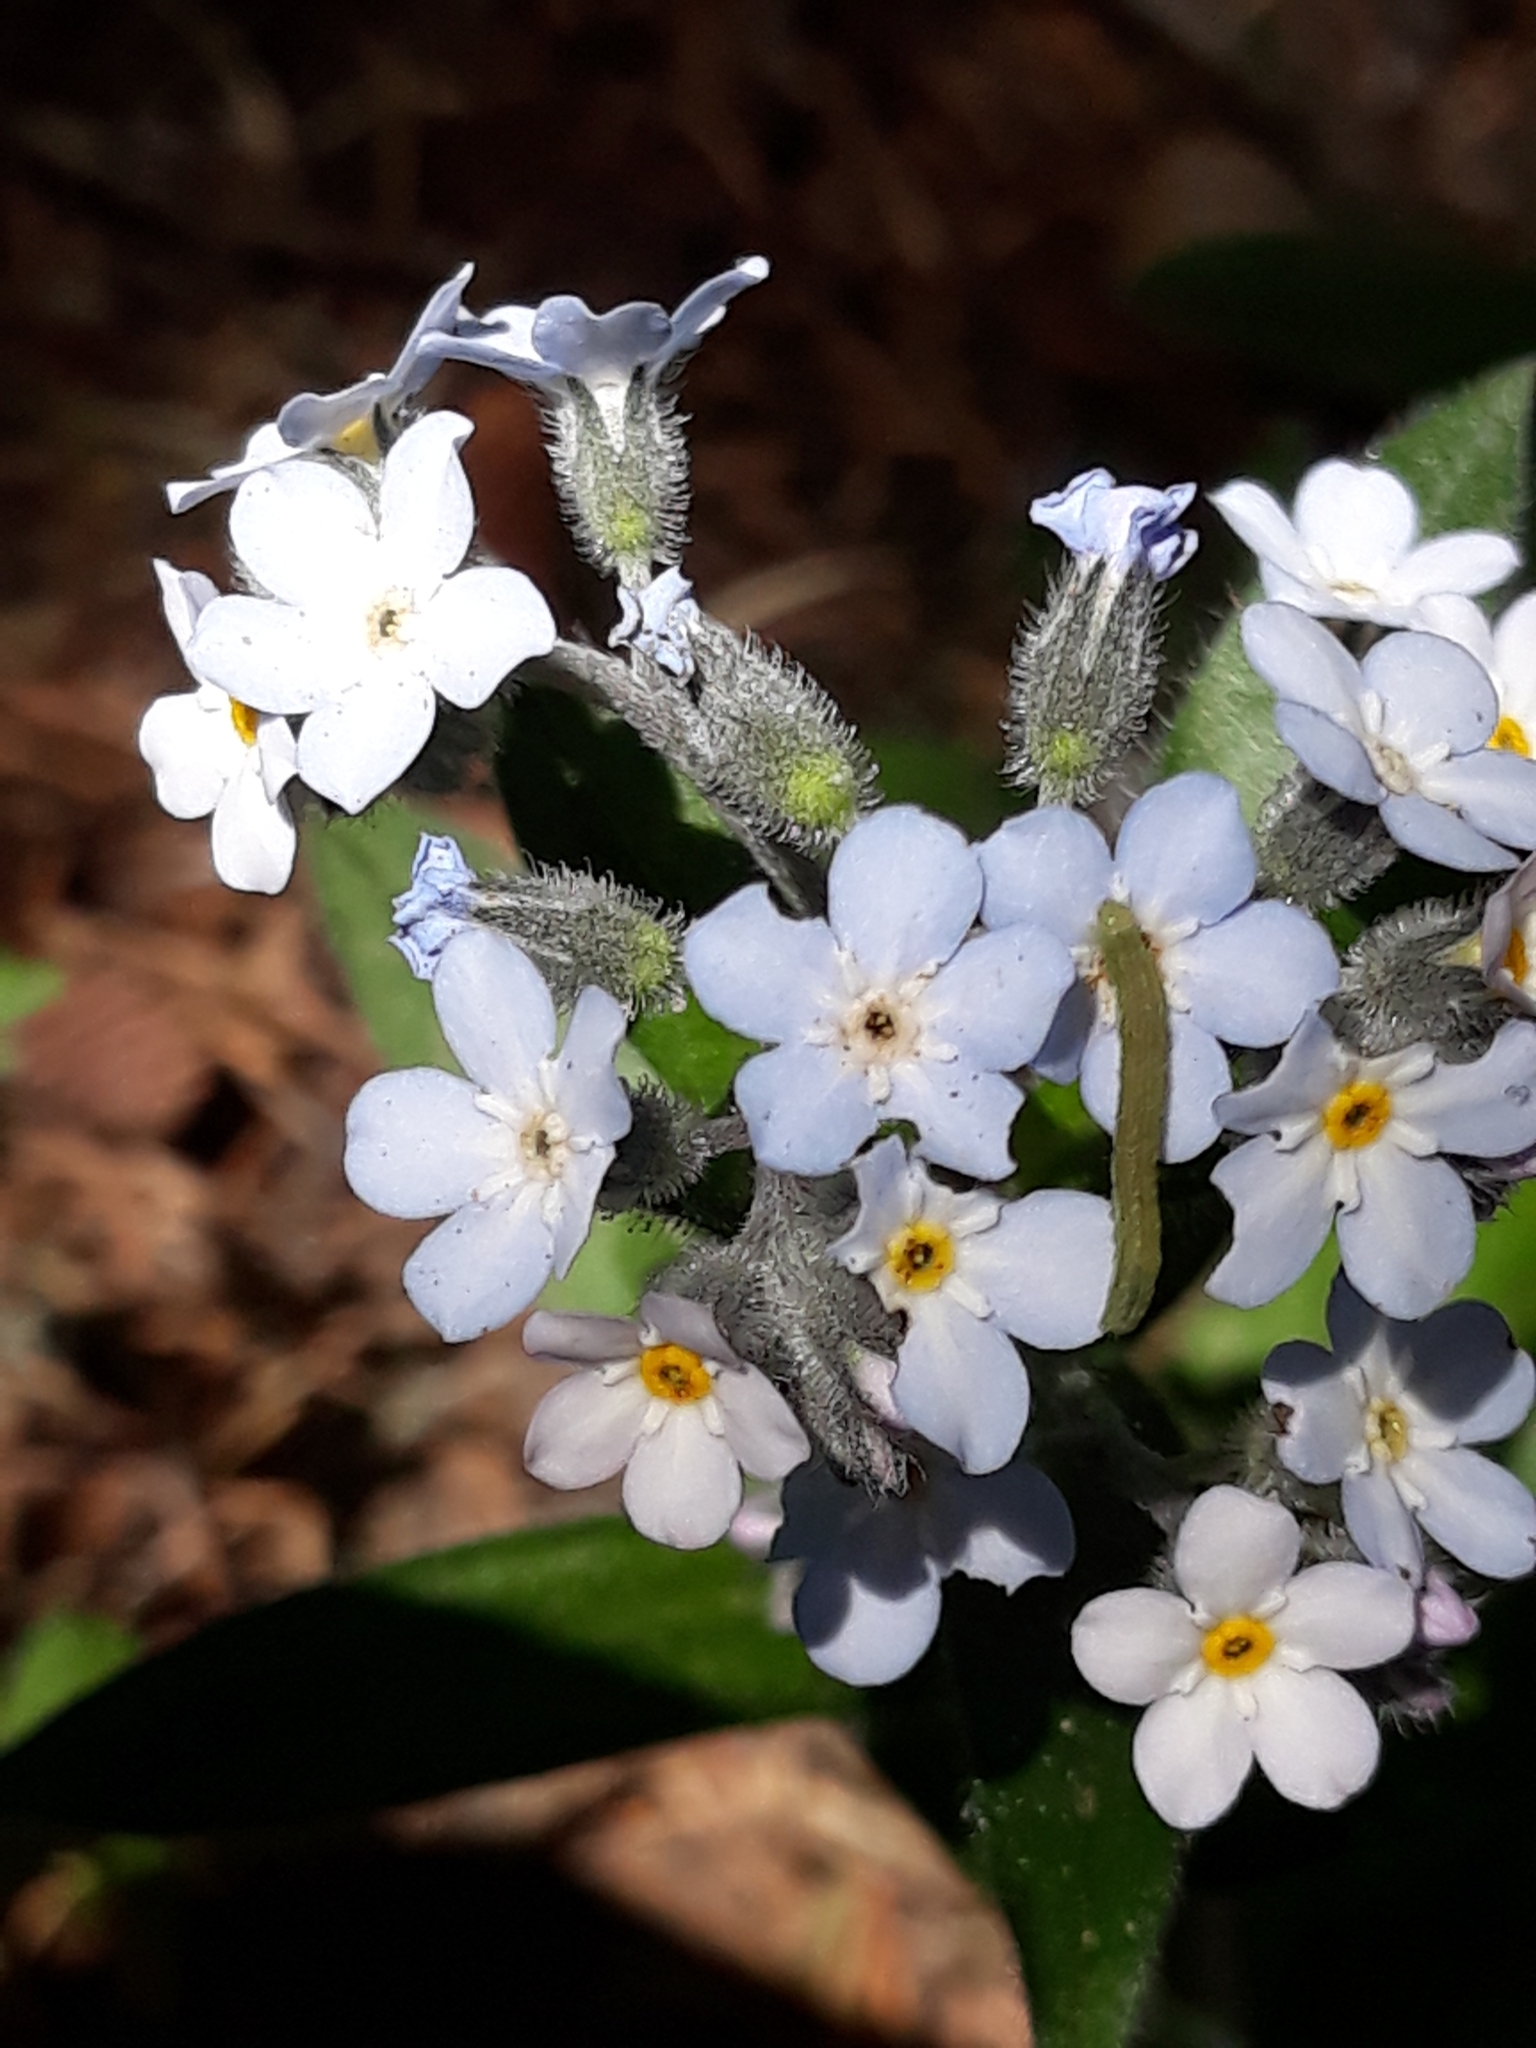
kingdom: Plantae
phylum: Tracheophyta
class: Magnoliopsida
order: Boraginales
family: Boraginaceae
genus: Myosotis
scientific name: Myosotis speciosa
